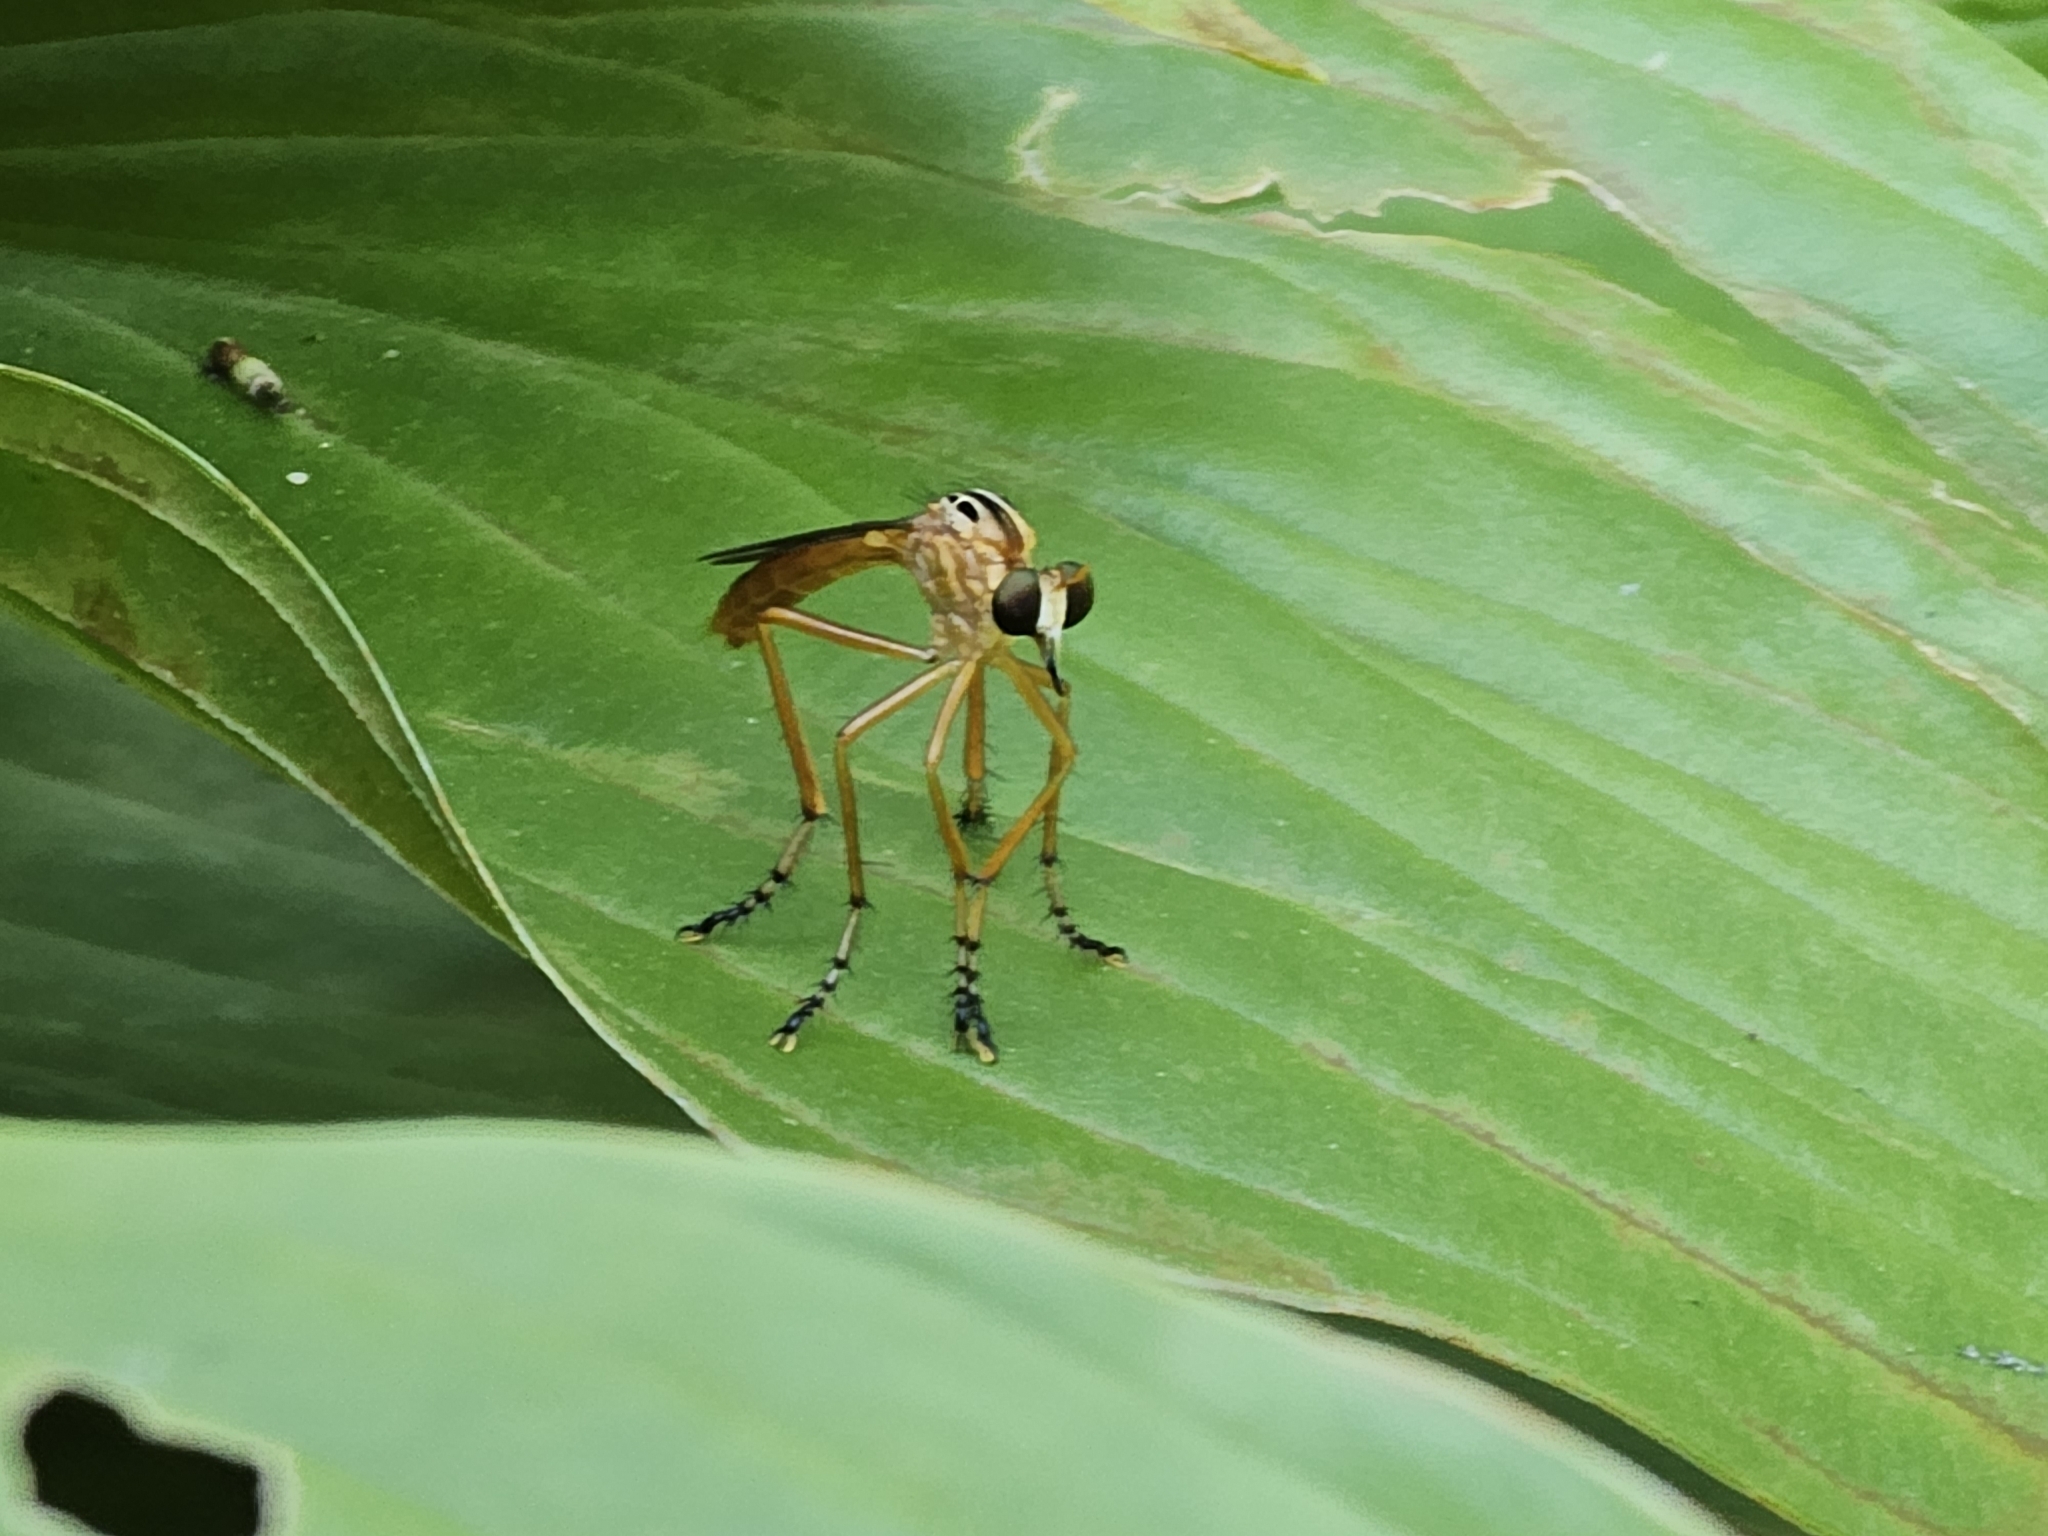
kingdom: Animalia
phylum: Arthropoda
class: Insecta
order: Diptera
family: Asilidae
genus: Diogmites
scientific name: Diogmites neoternatus
